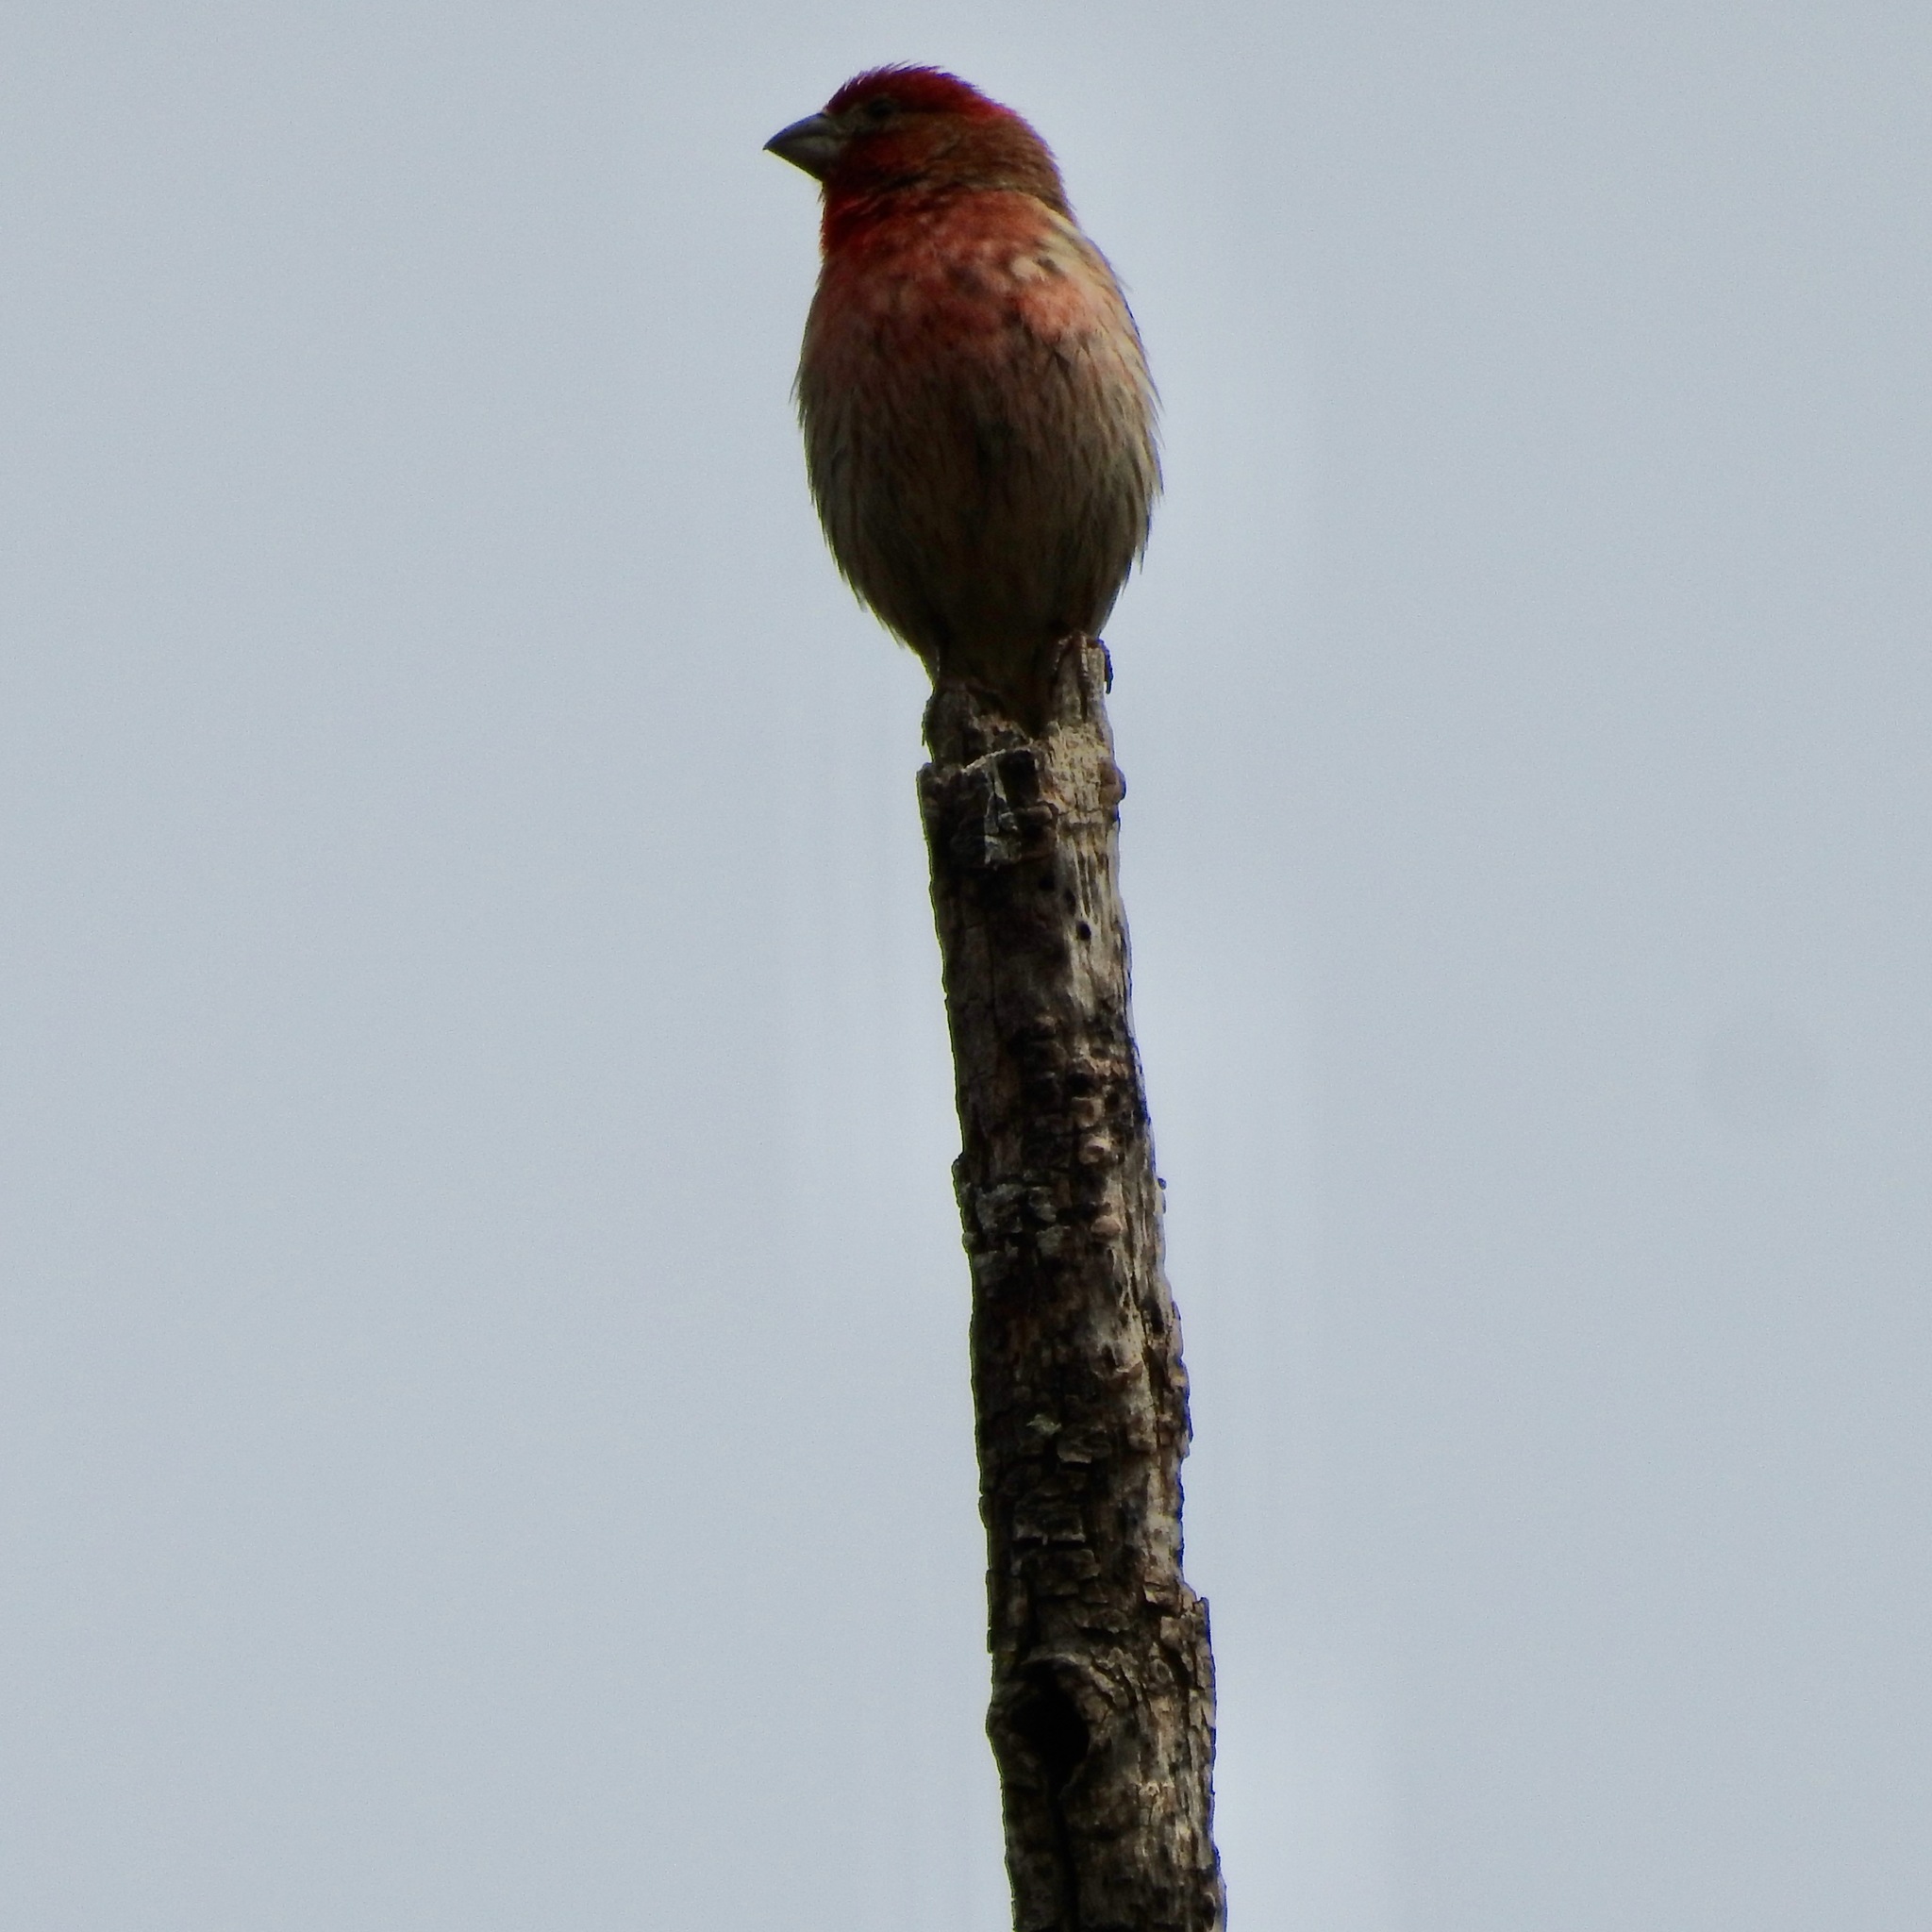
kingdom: Animalia
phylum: Chordata
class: Aves
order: Passeriformes
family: Fringillidae
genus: Haemorhous
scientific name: Haemorhous mexicanus
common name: House finch
